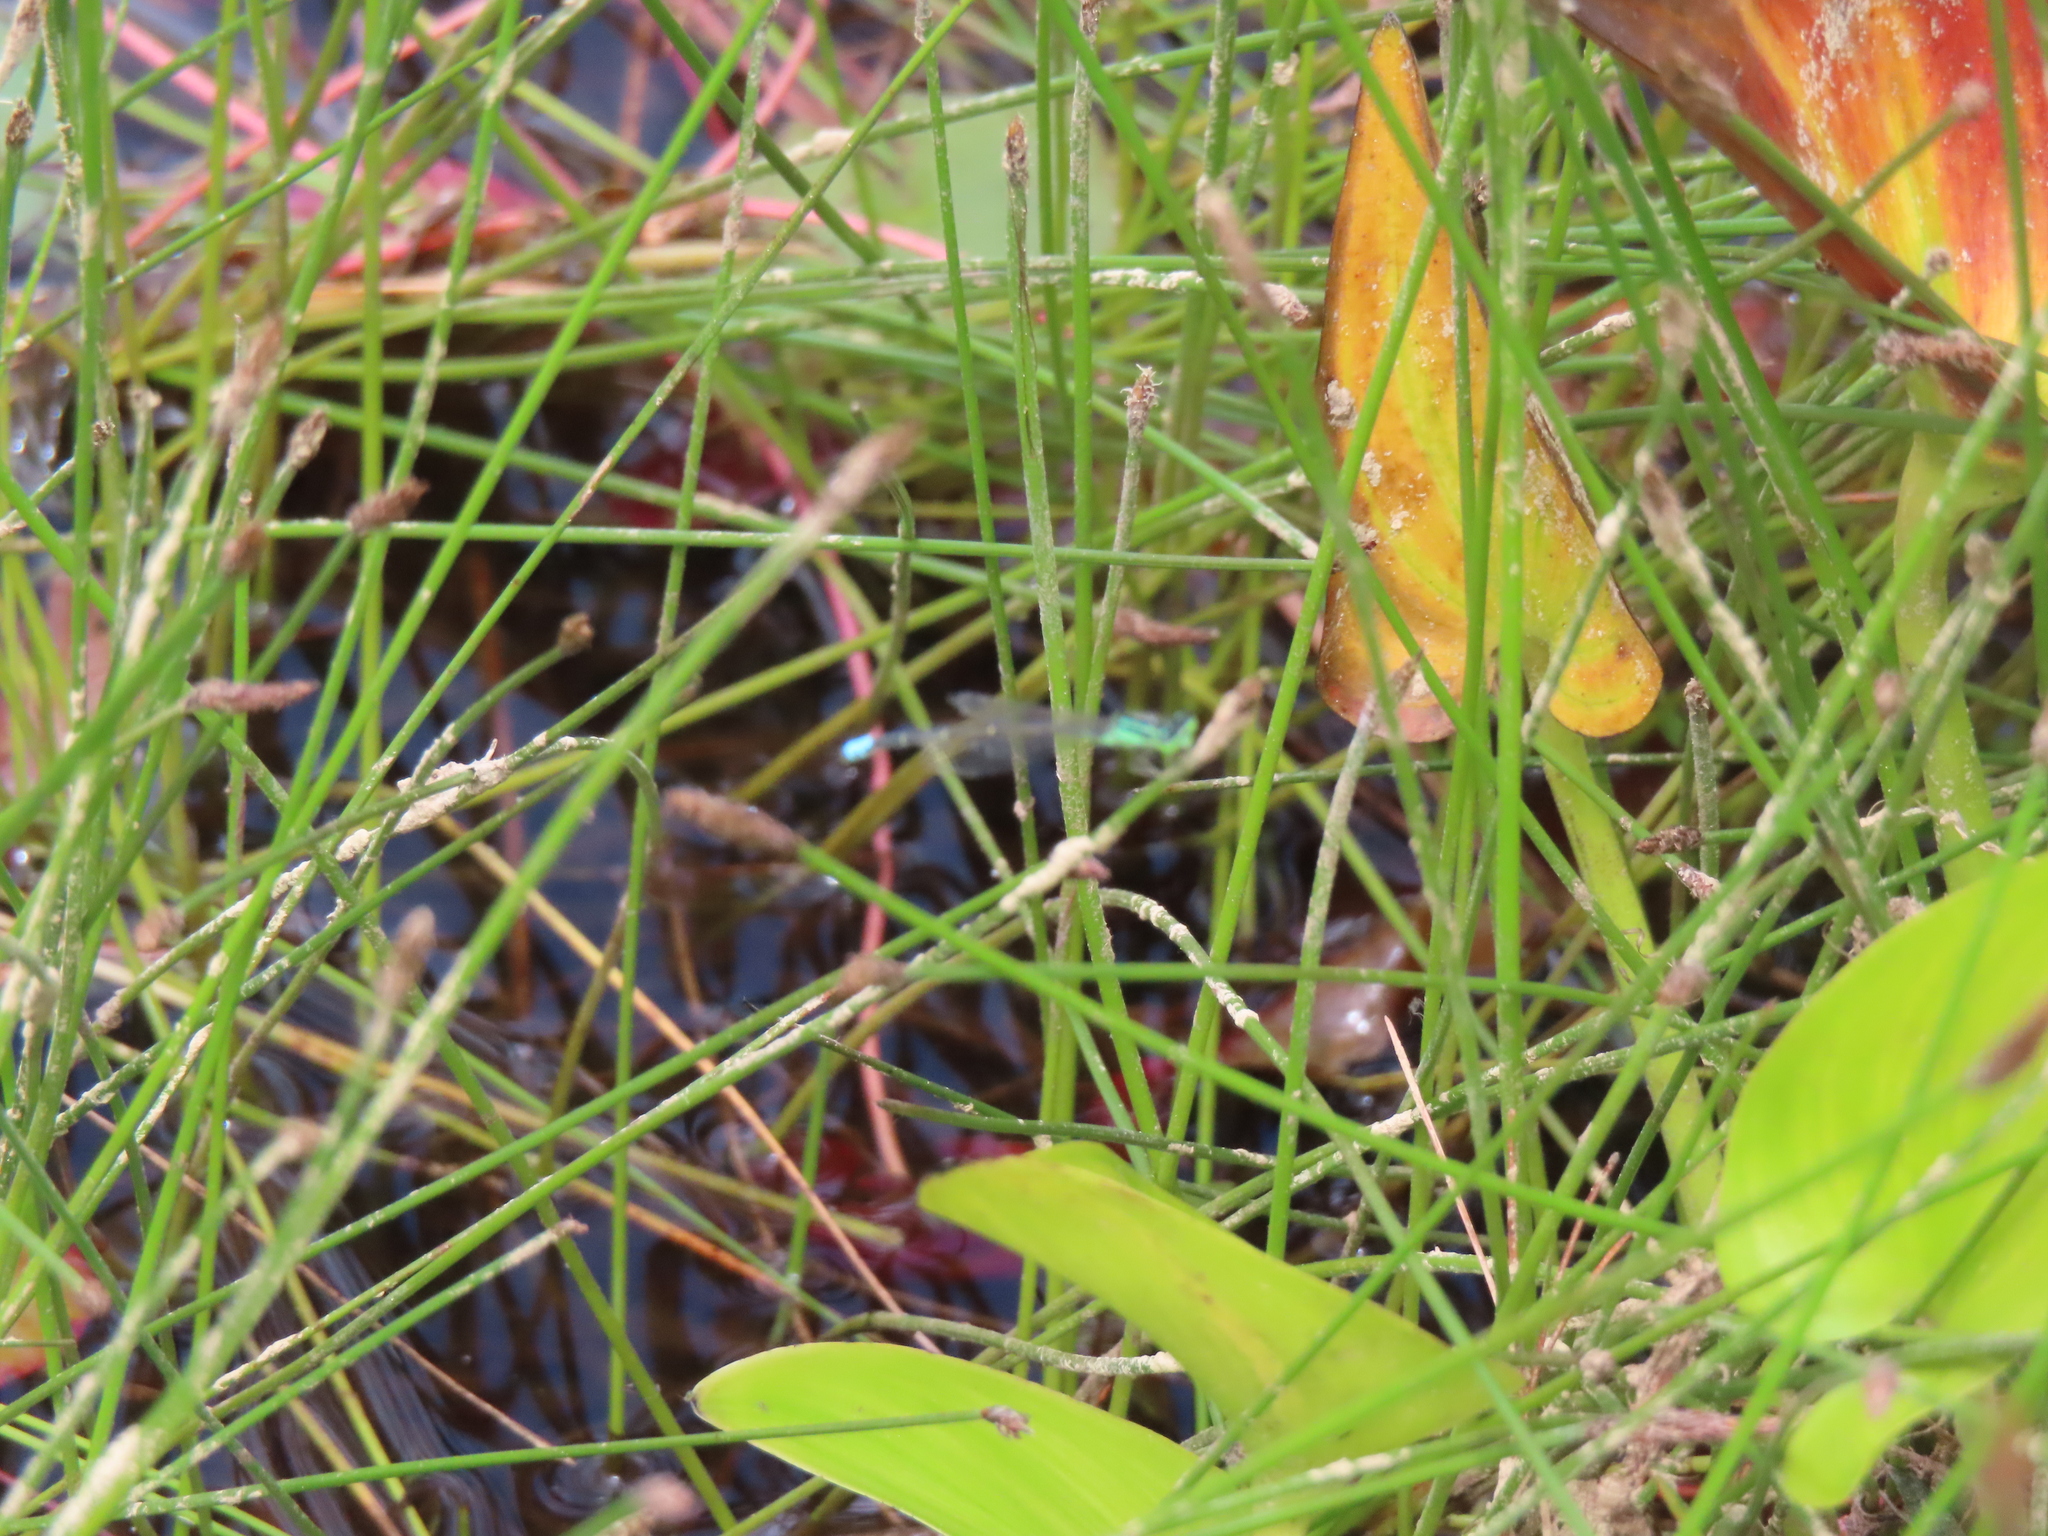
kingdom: Animalia
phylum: Arthropoda
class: Insecta
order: Odonata
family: Coenagrionidae
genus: Ischnura
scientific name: Ischnura verticalis
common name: Eastern forktail
